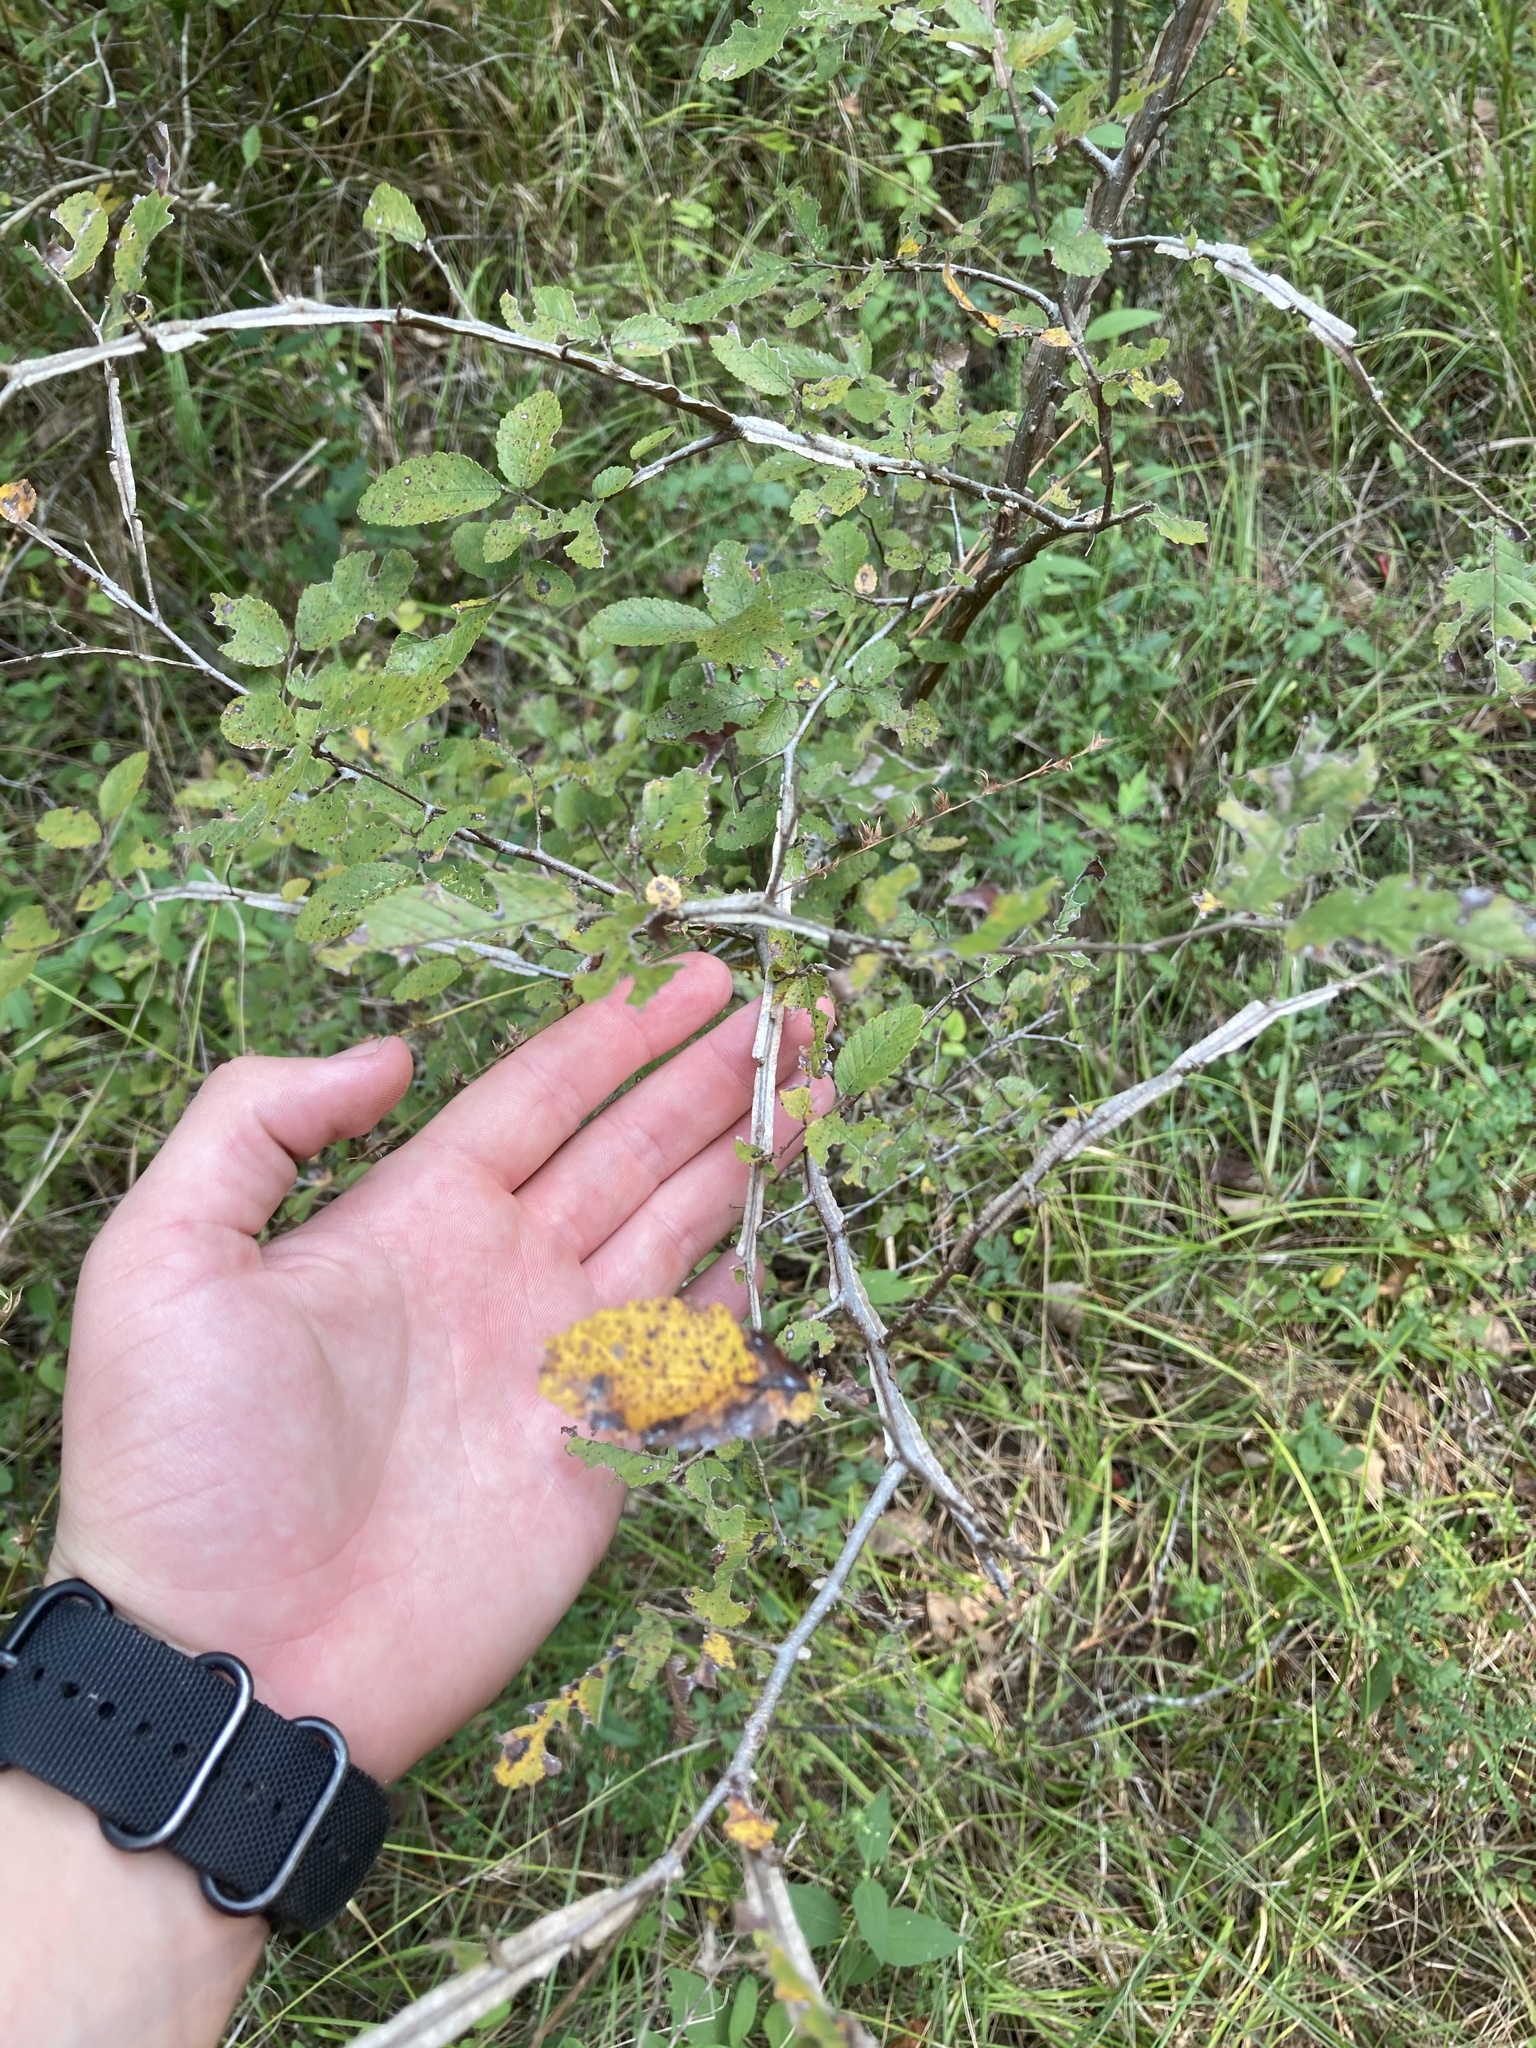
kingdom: Plantae
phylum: Tracheophyta
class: Magnoliopsida
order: Rosales
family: Ulmaceae
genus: Ulmus
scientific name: Ulmus alata
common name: Winged elm
